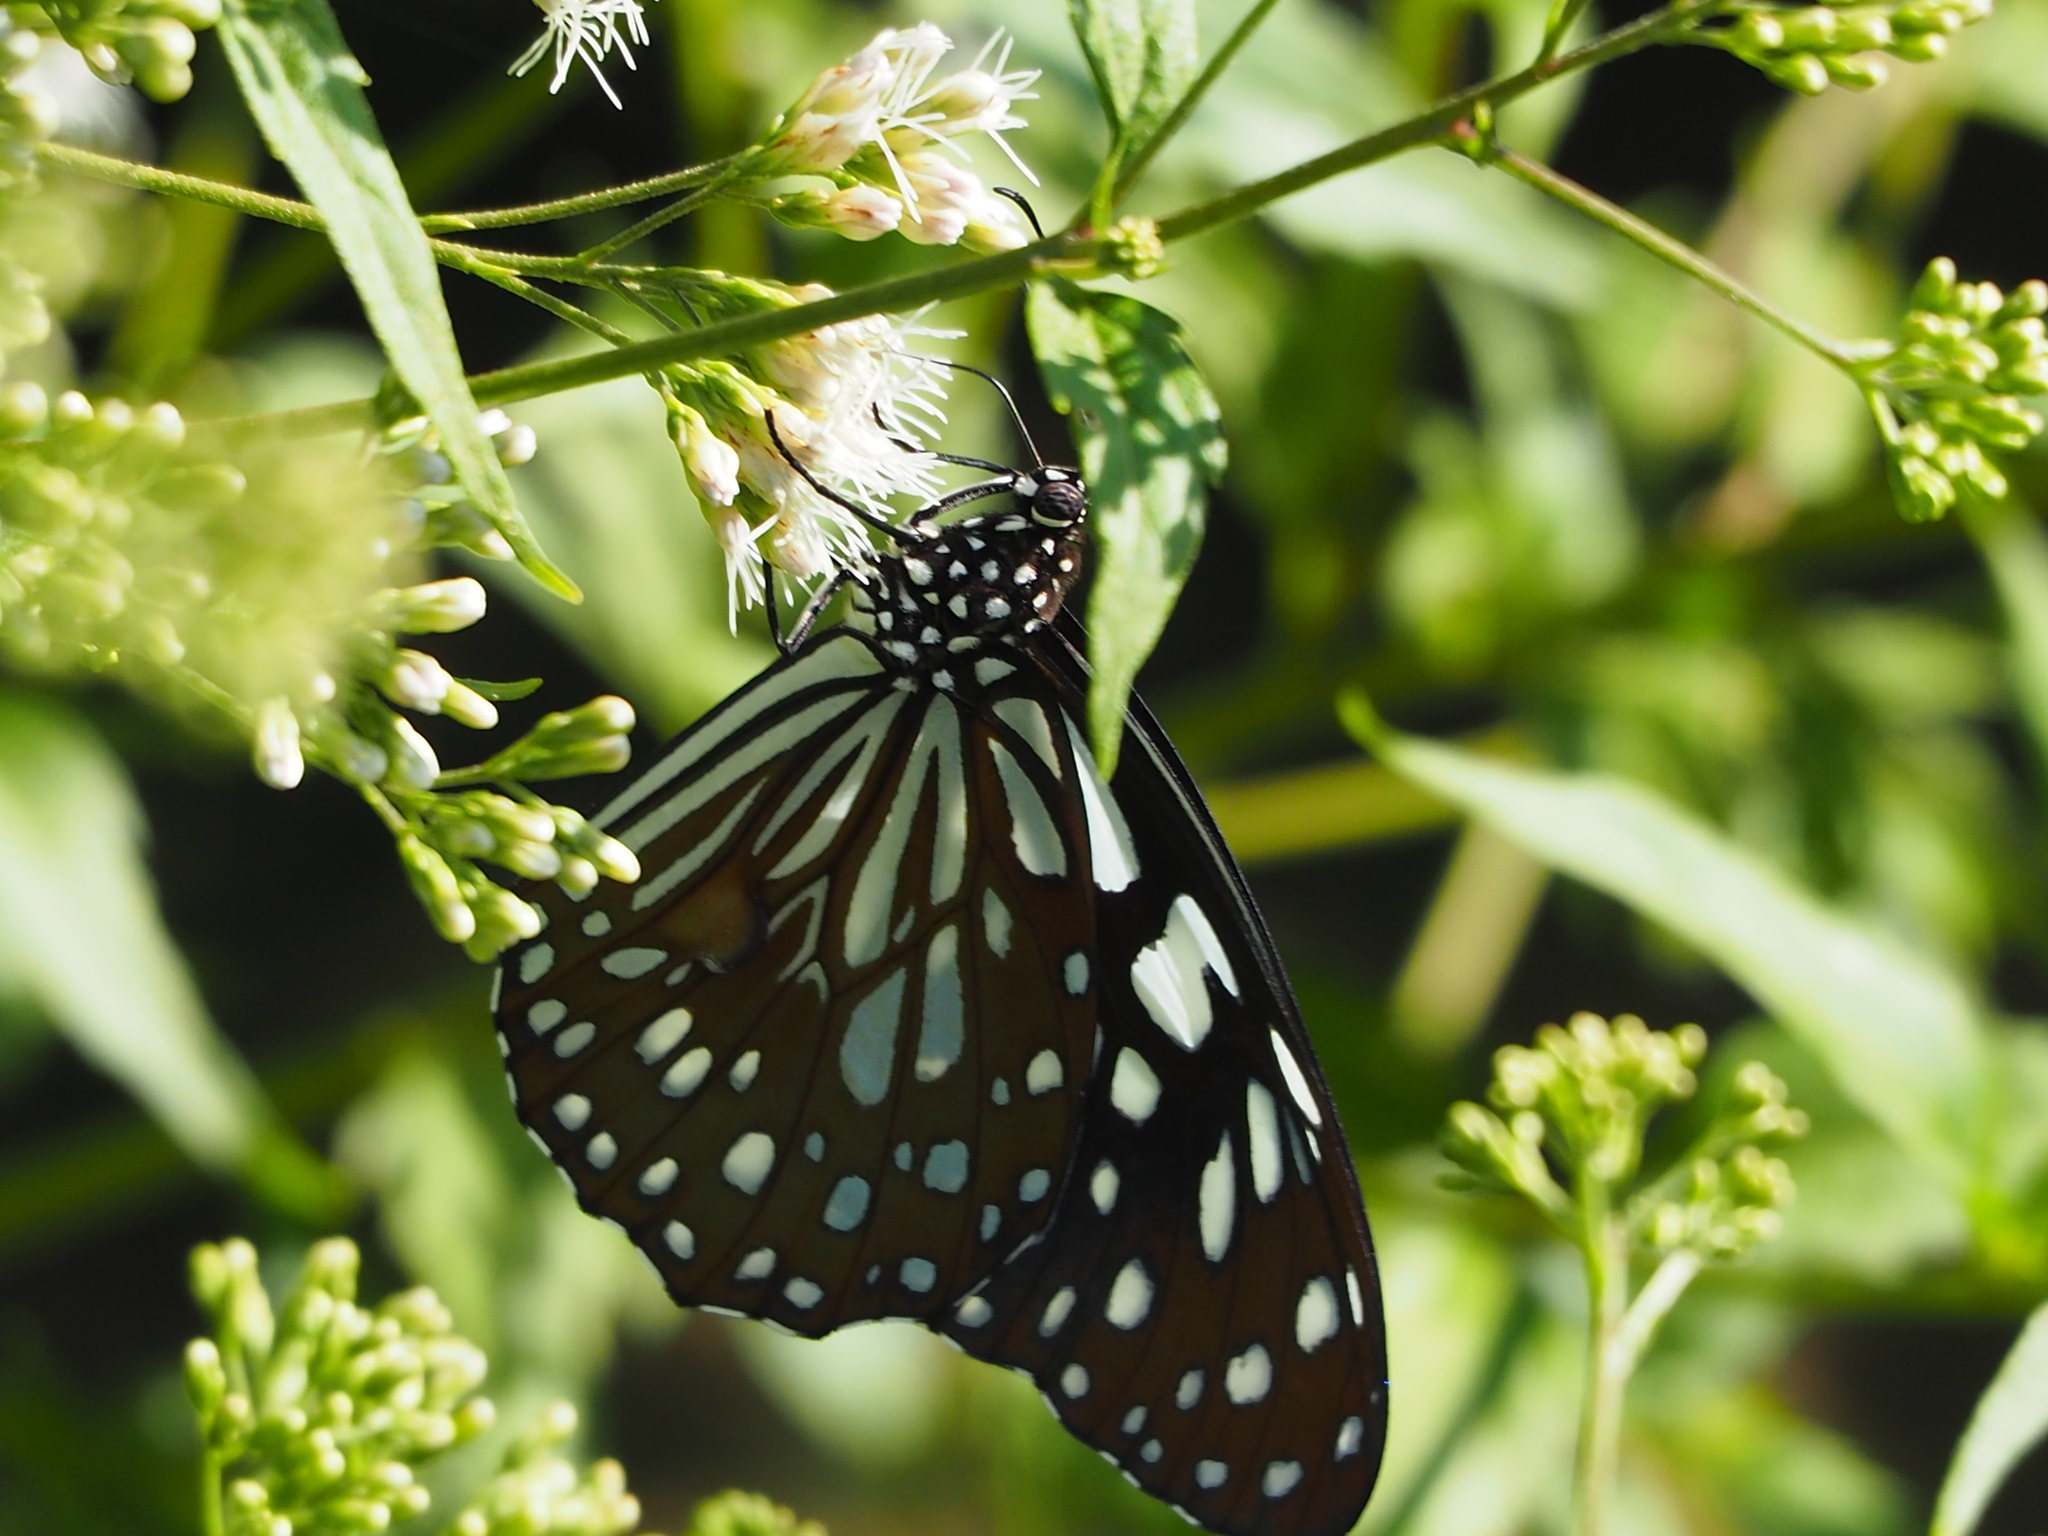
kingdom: Animalia
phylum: Arthropoda
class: Insecta
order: Lepidoptera
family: Nymphalidae
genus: Tirumala
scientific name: Tirumala limniace
